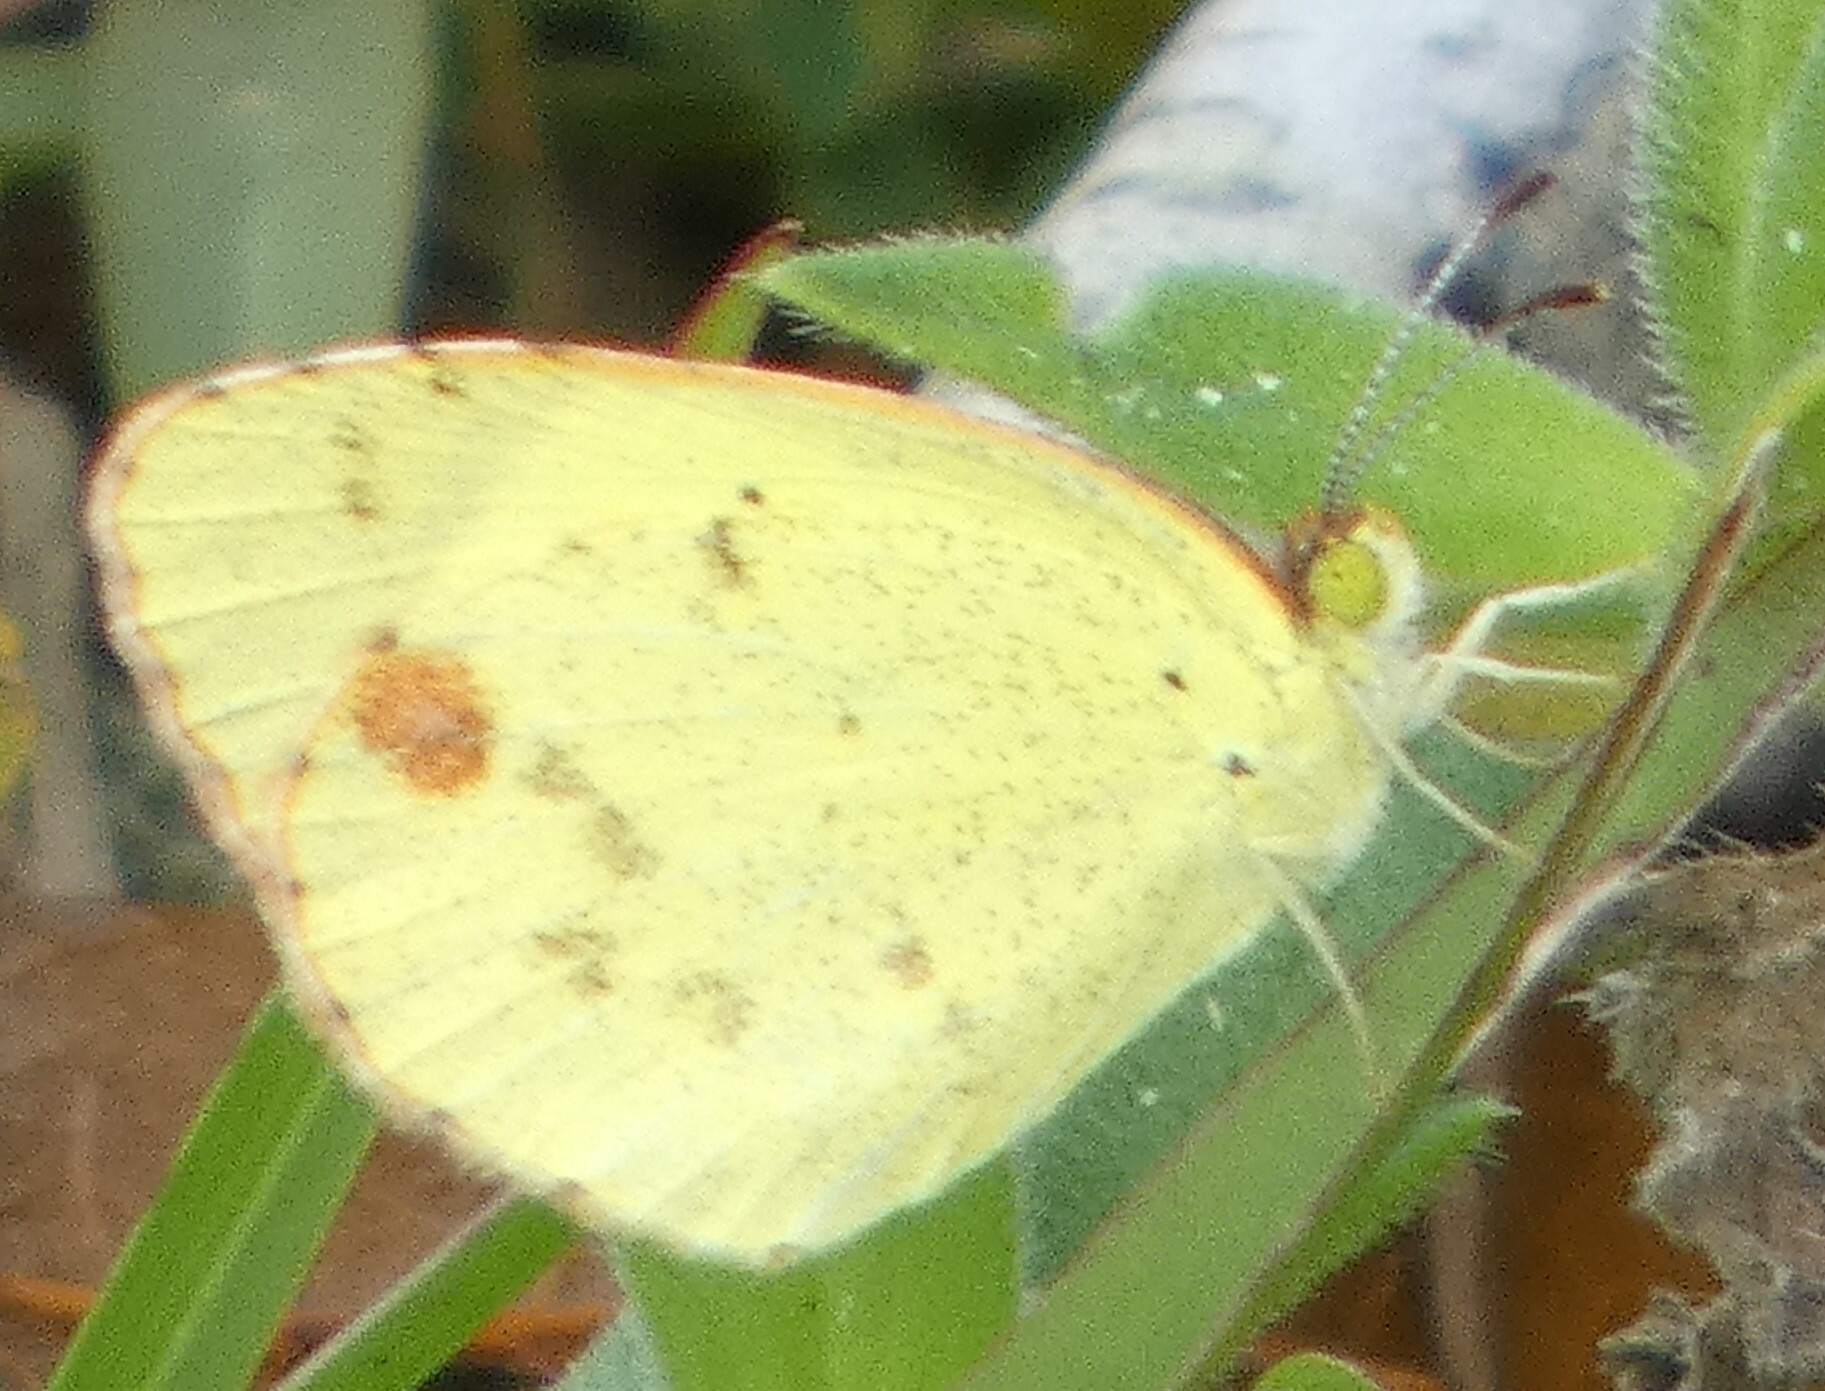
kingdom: Animalia
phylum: Arthropoda
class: Insecta
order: Lepidoptera
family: Pieridae
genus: Pyrisitia
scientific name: Pyrisitia lisa
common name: Little yellow
